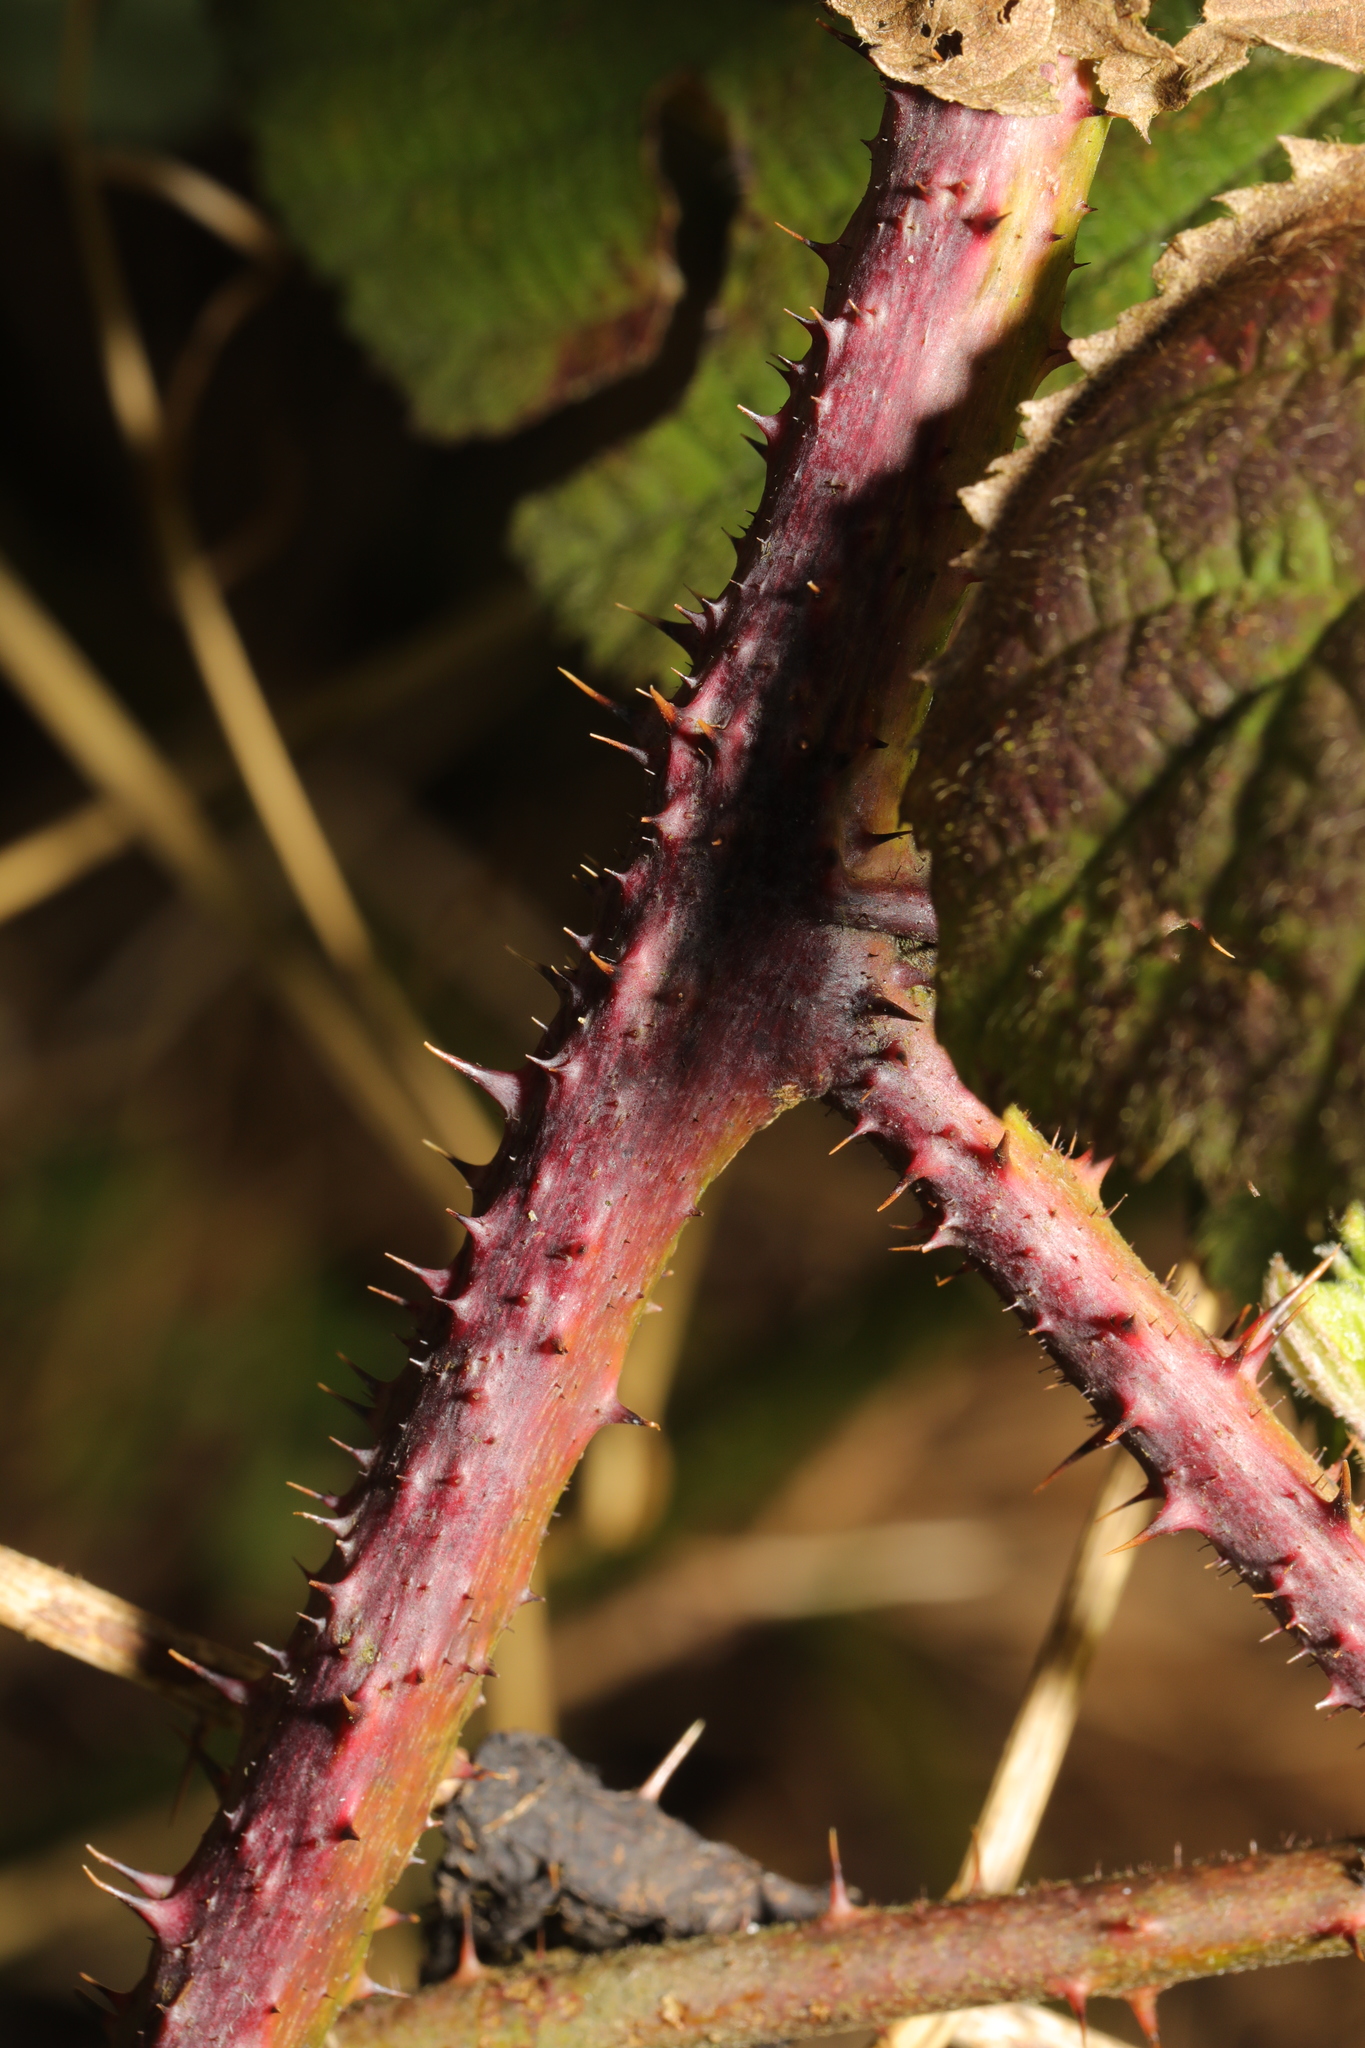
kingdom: Plantae
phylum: Tracheophyta
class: Magnoliopsida
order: Rosales
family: Rosaceae
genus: Rubus
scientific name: Rubus horrefactus
